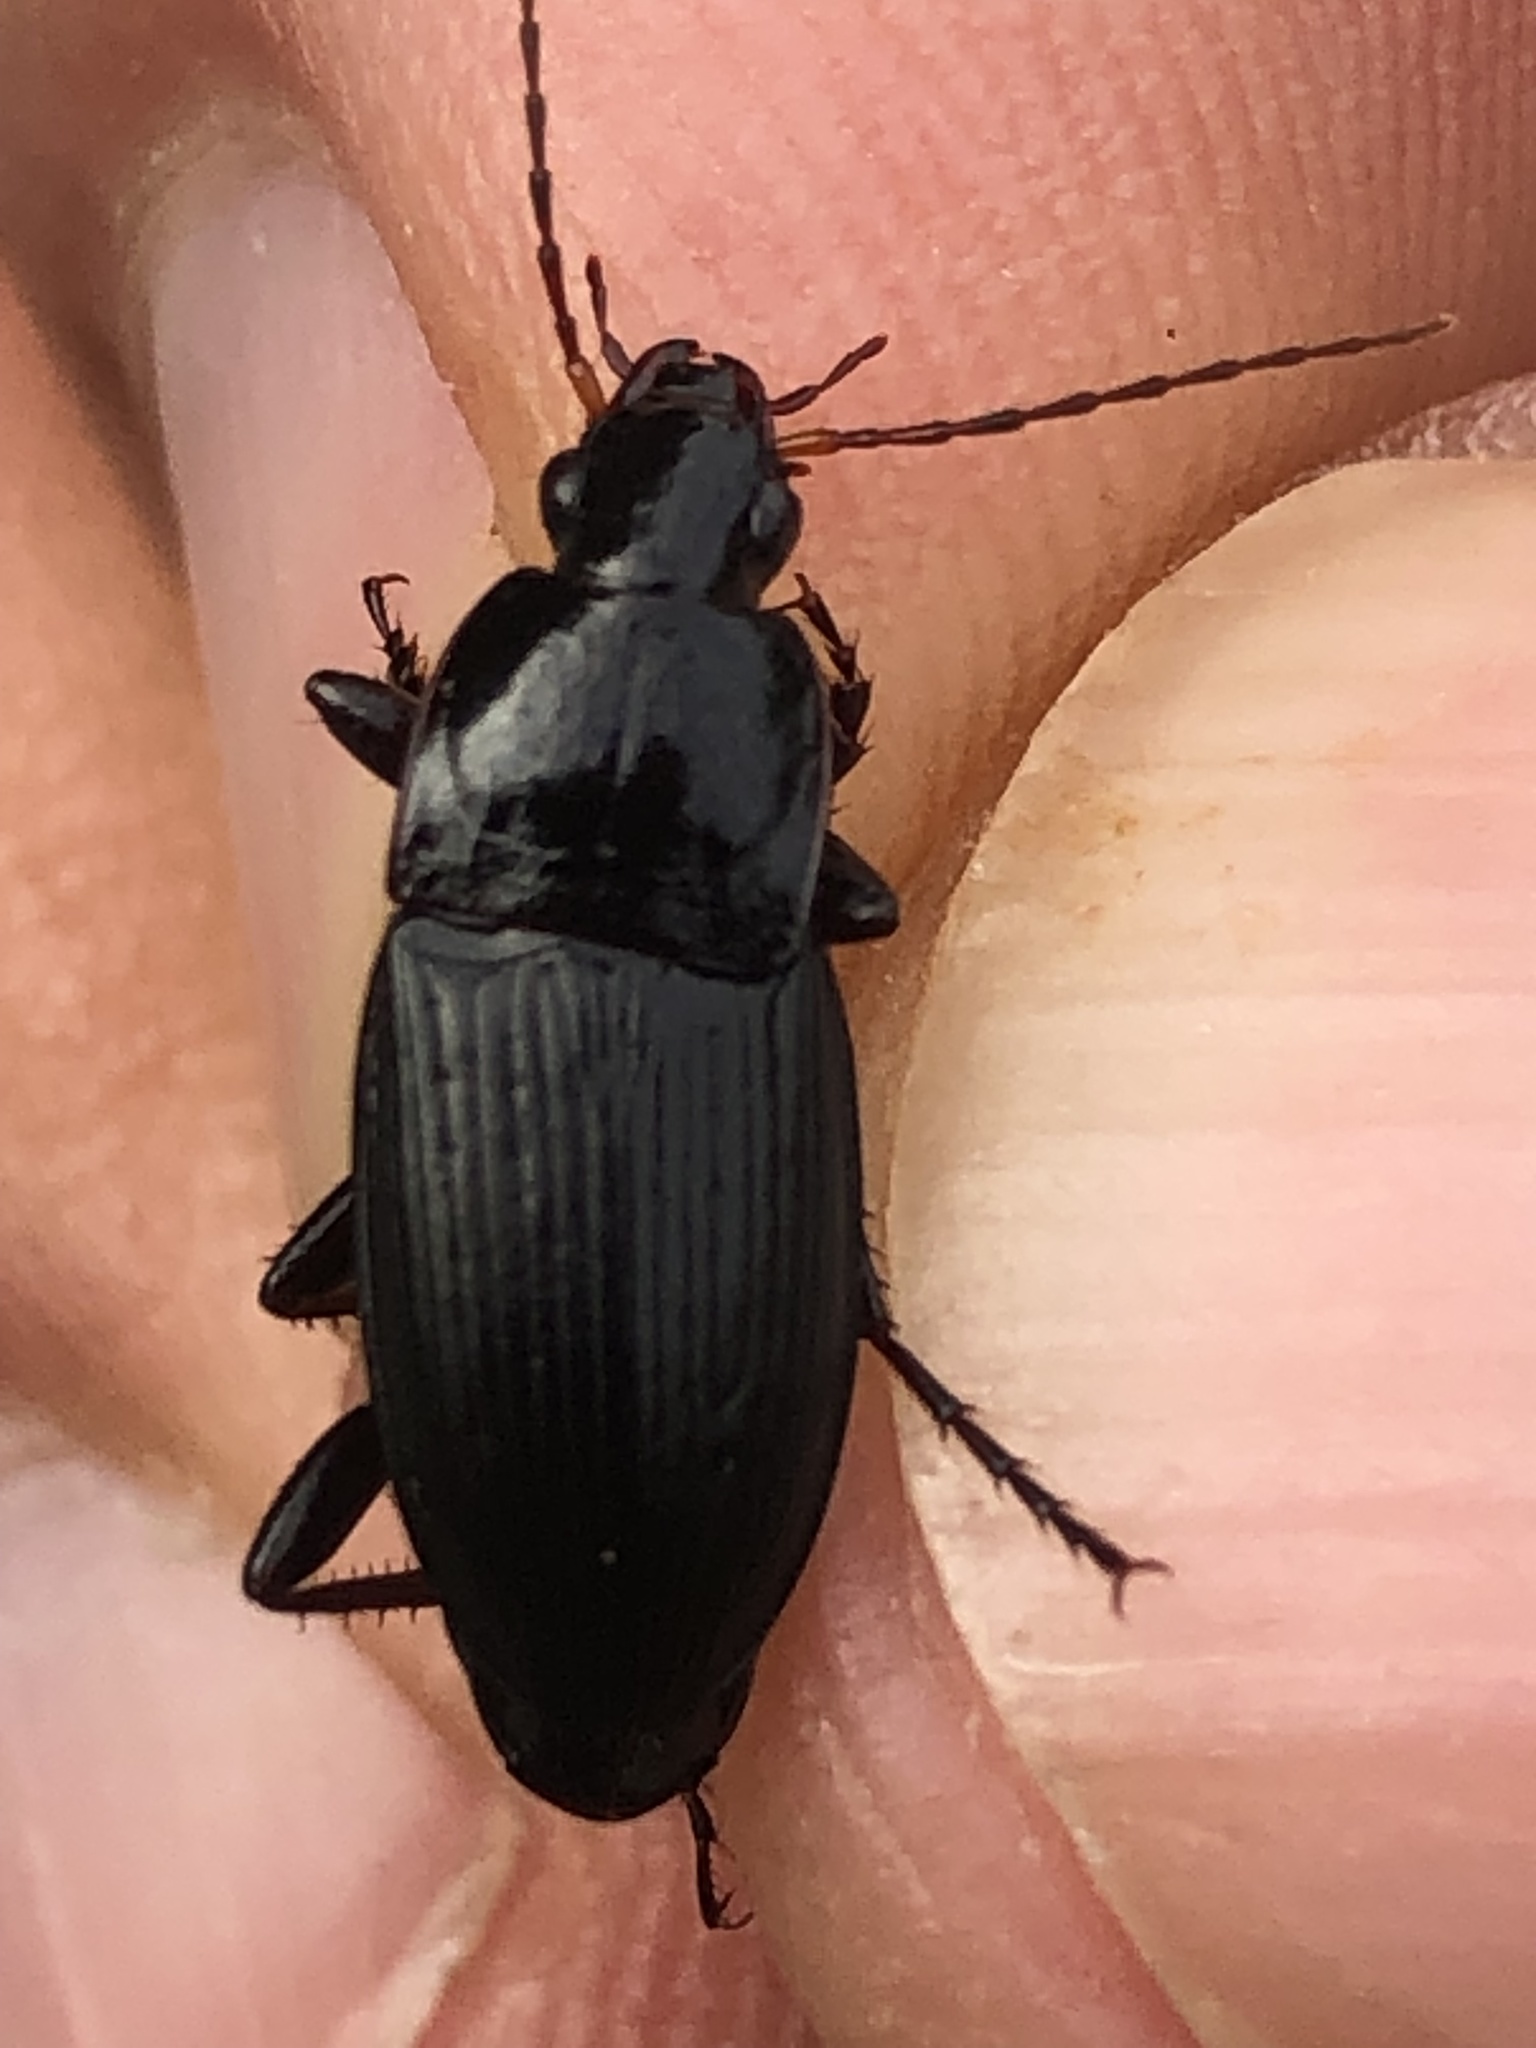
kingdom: Animalia
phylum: Arthropoda
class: Insecta
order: Coleoptera
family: Carabidae
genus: Calathus
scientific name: Calathus fuscipes
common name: Dark-footed harp ground beetle
